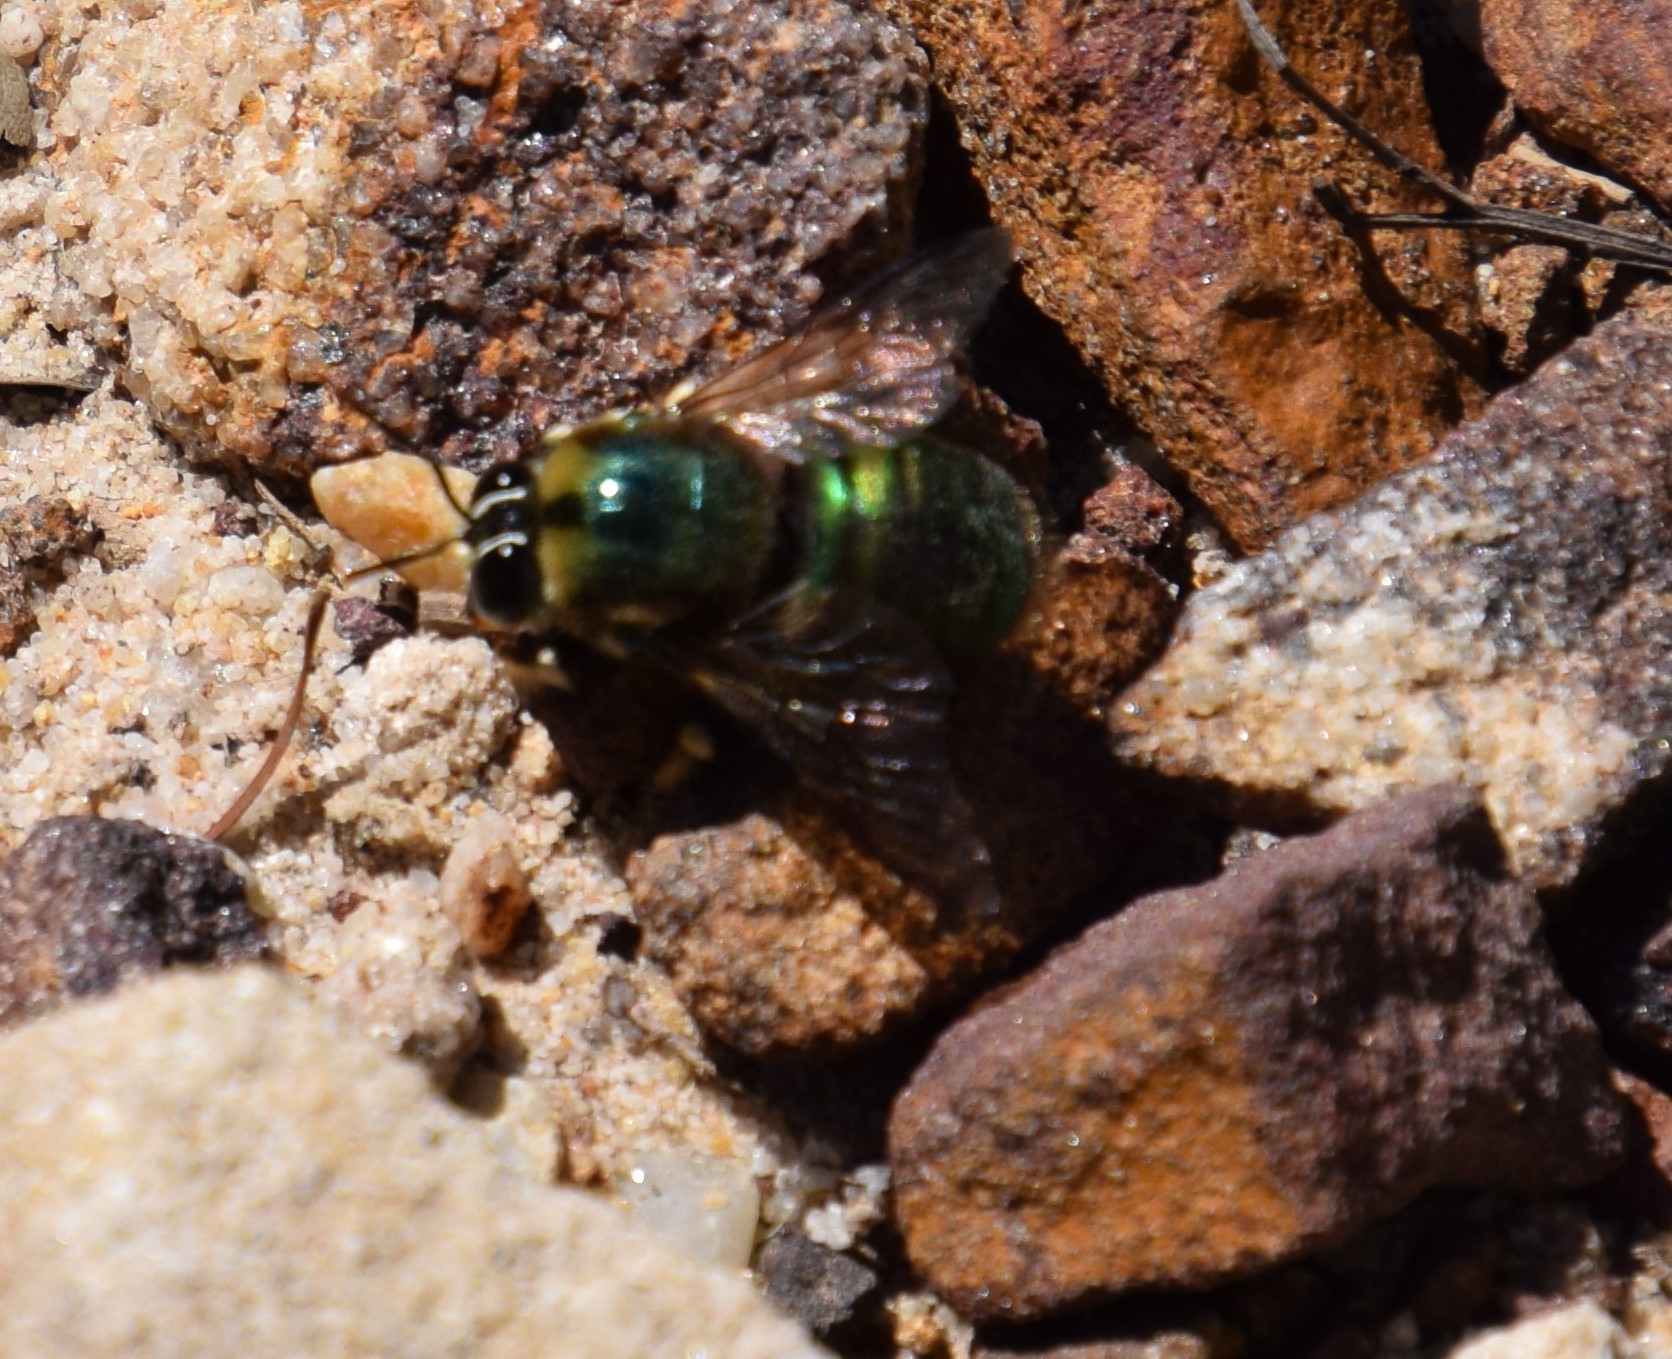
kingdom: Animalia
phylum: Arthropoda
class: Insecta
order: Hymenoptera
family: Apidae
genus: Xylocopa
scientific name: Xylocopa bombylans
